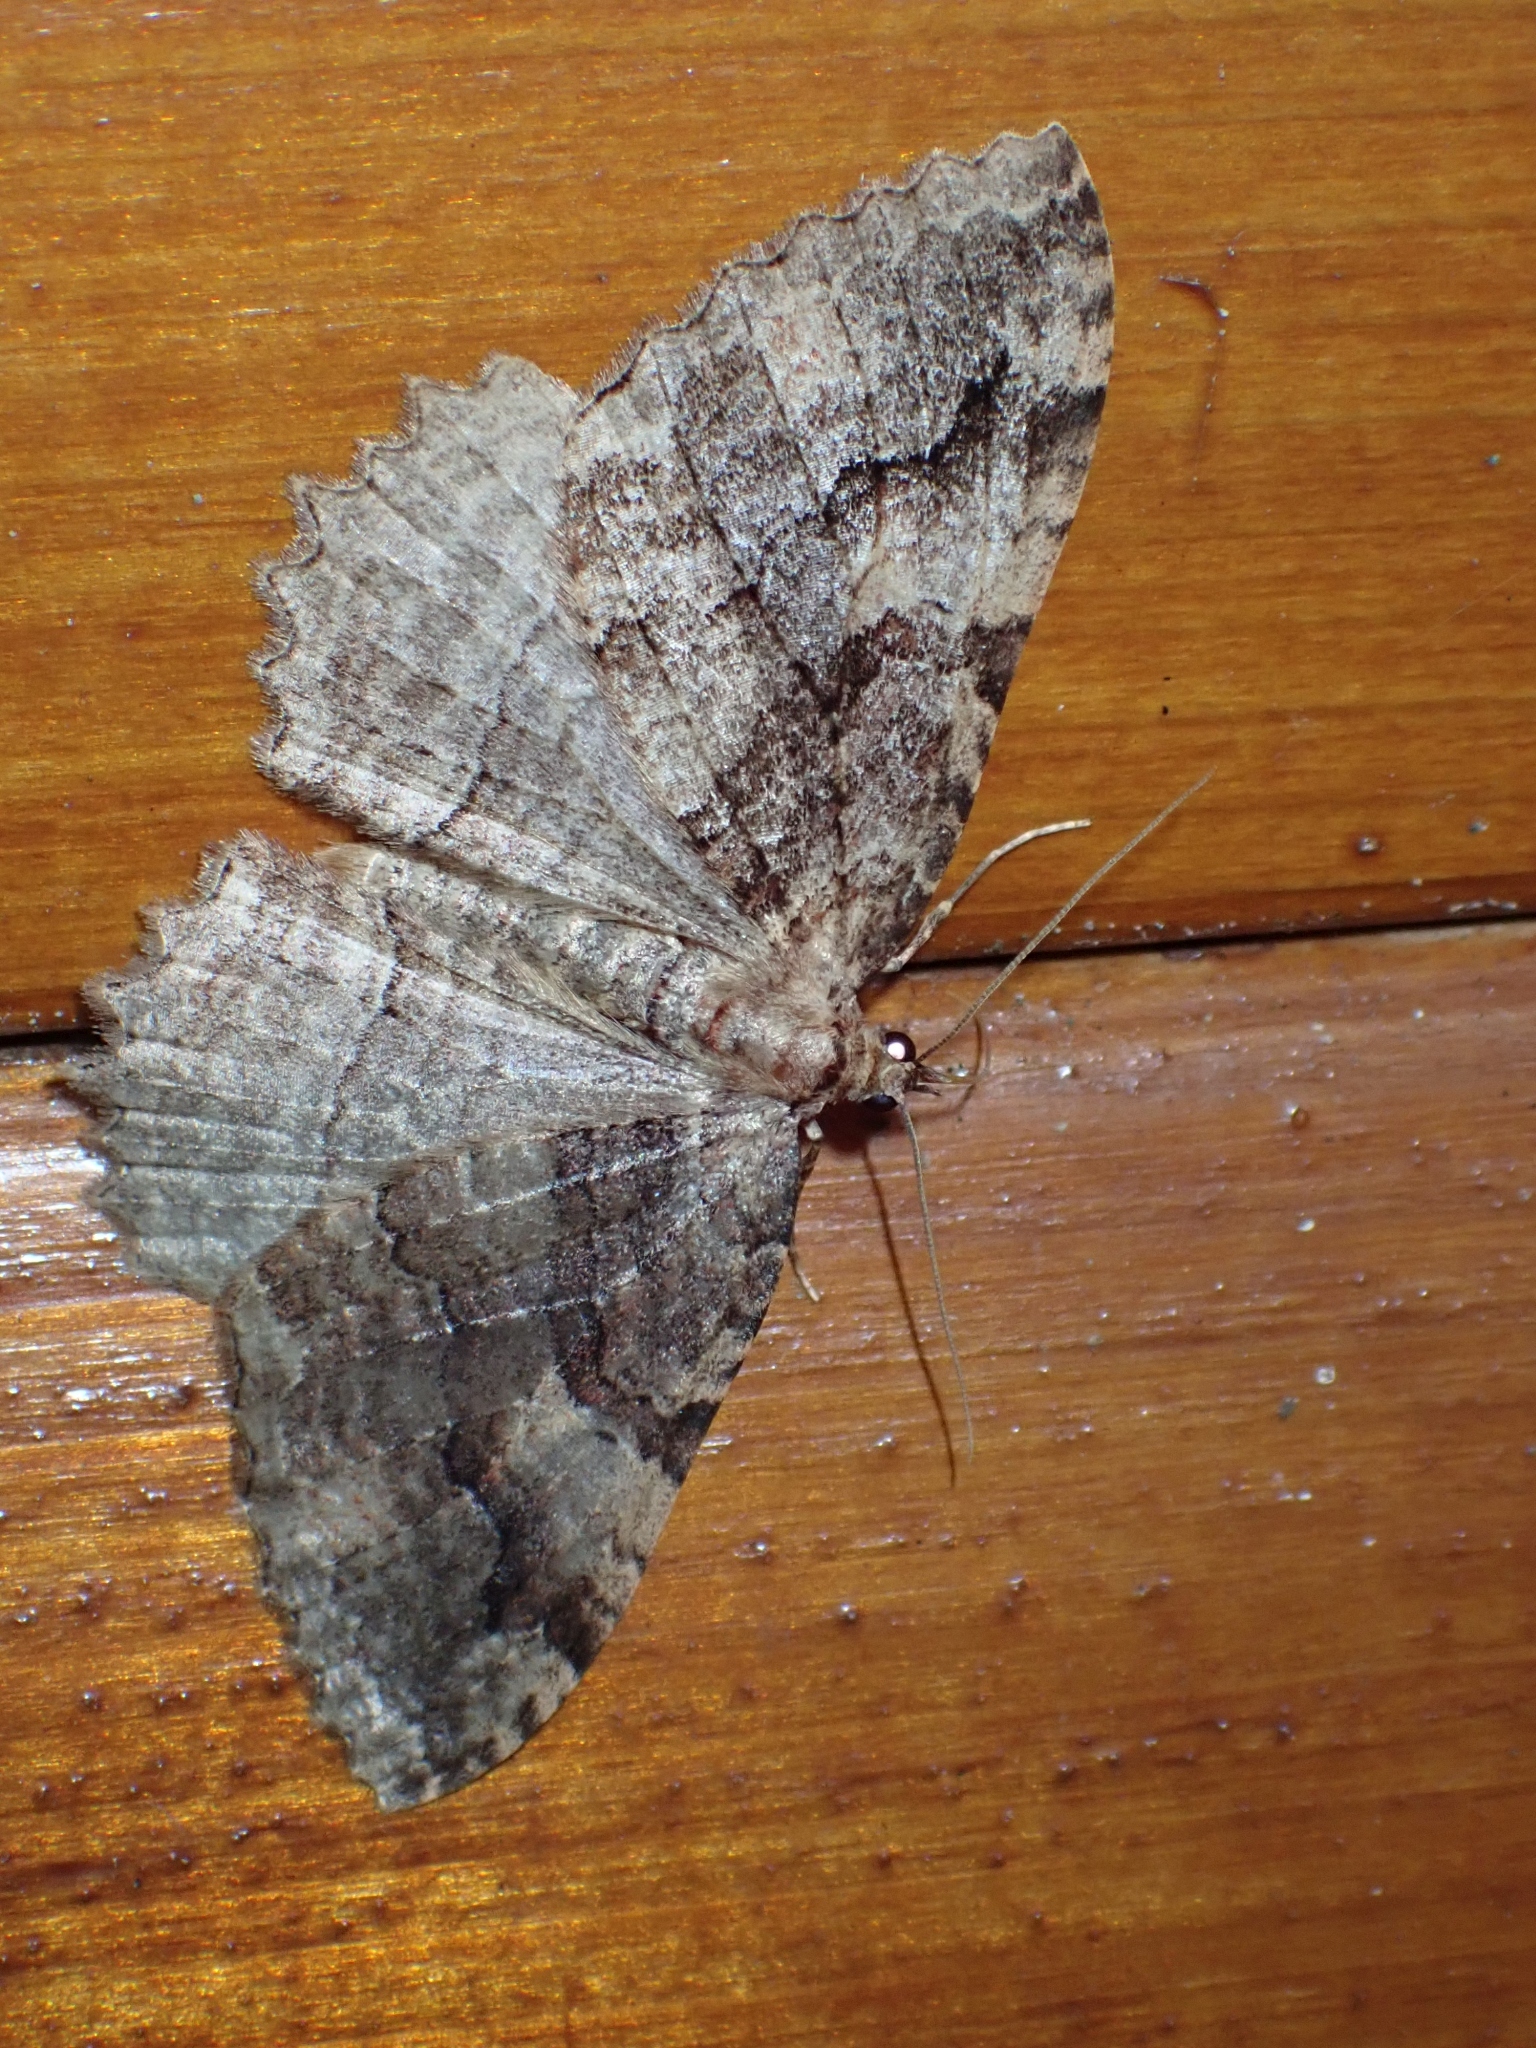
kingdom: Animalia
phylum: Arthropoda
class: Insecta
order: Lepidoptera
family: Geometridae
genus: Triphosa
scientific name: Triphosa haesitata
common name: Tissue moth
